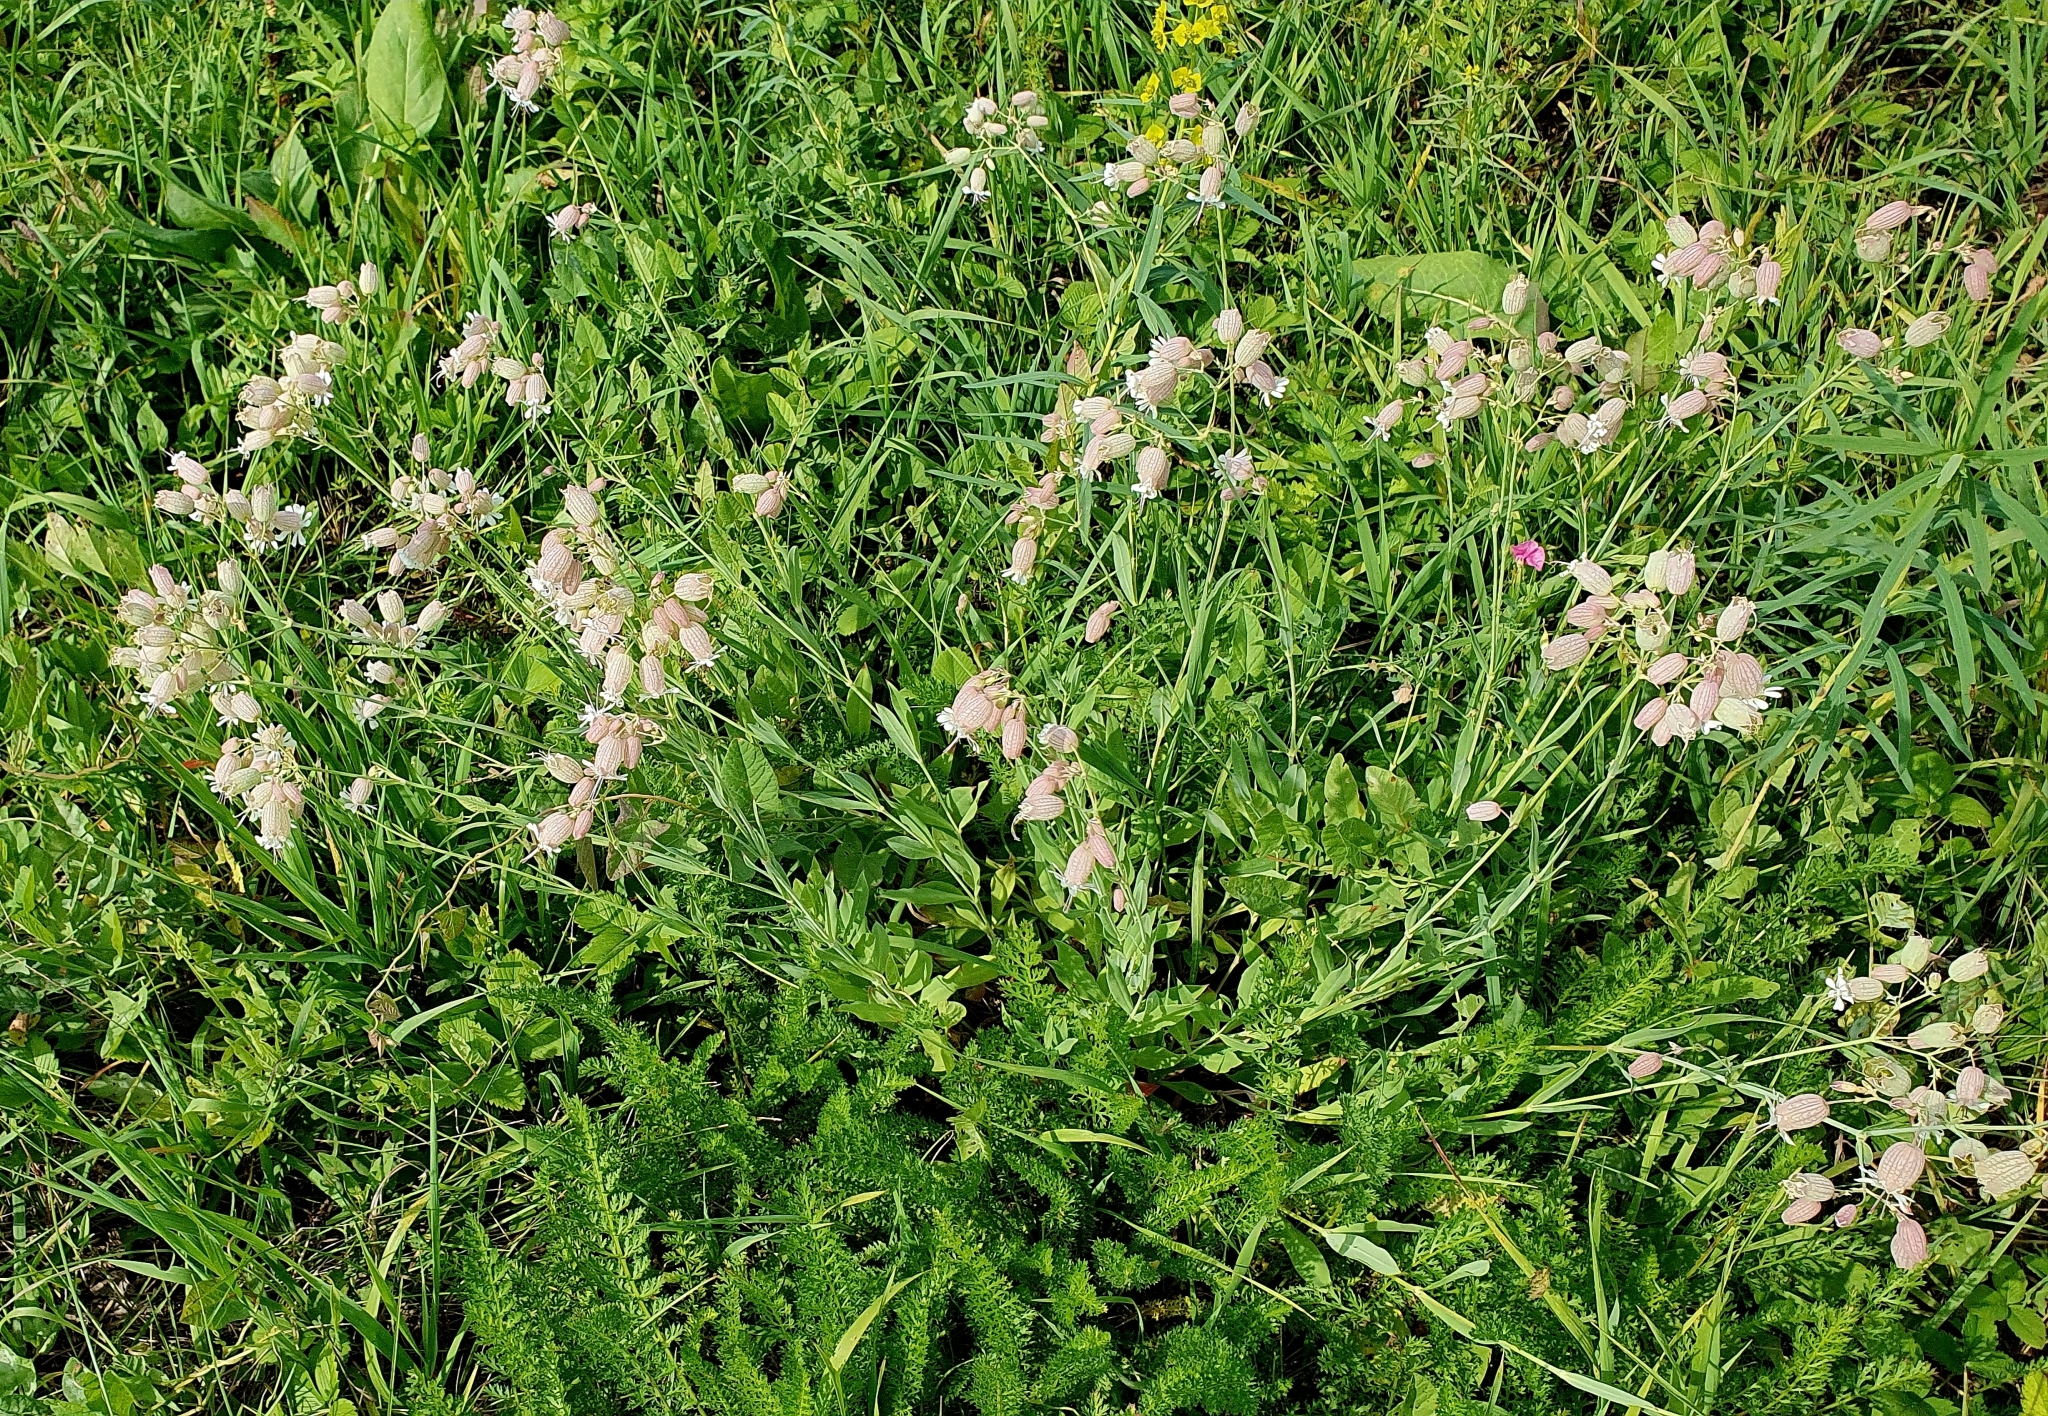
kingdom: Plantae
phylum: Tracheophyta
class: Magnoliopsida
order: Caryophyllales
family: Caryophyllaceae
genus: Silene
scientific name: Silene vulgaris
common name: Bladder campion
